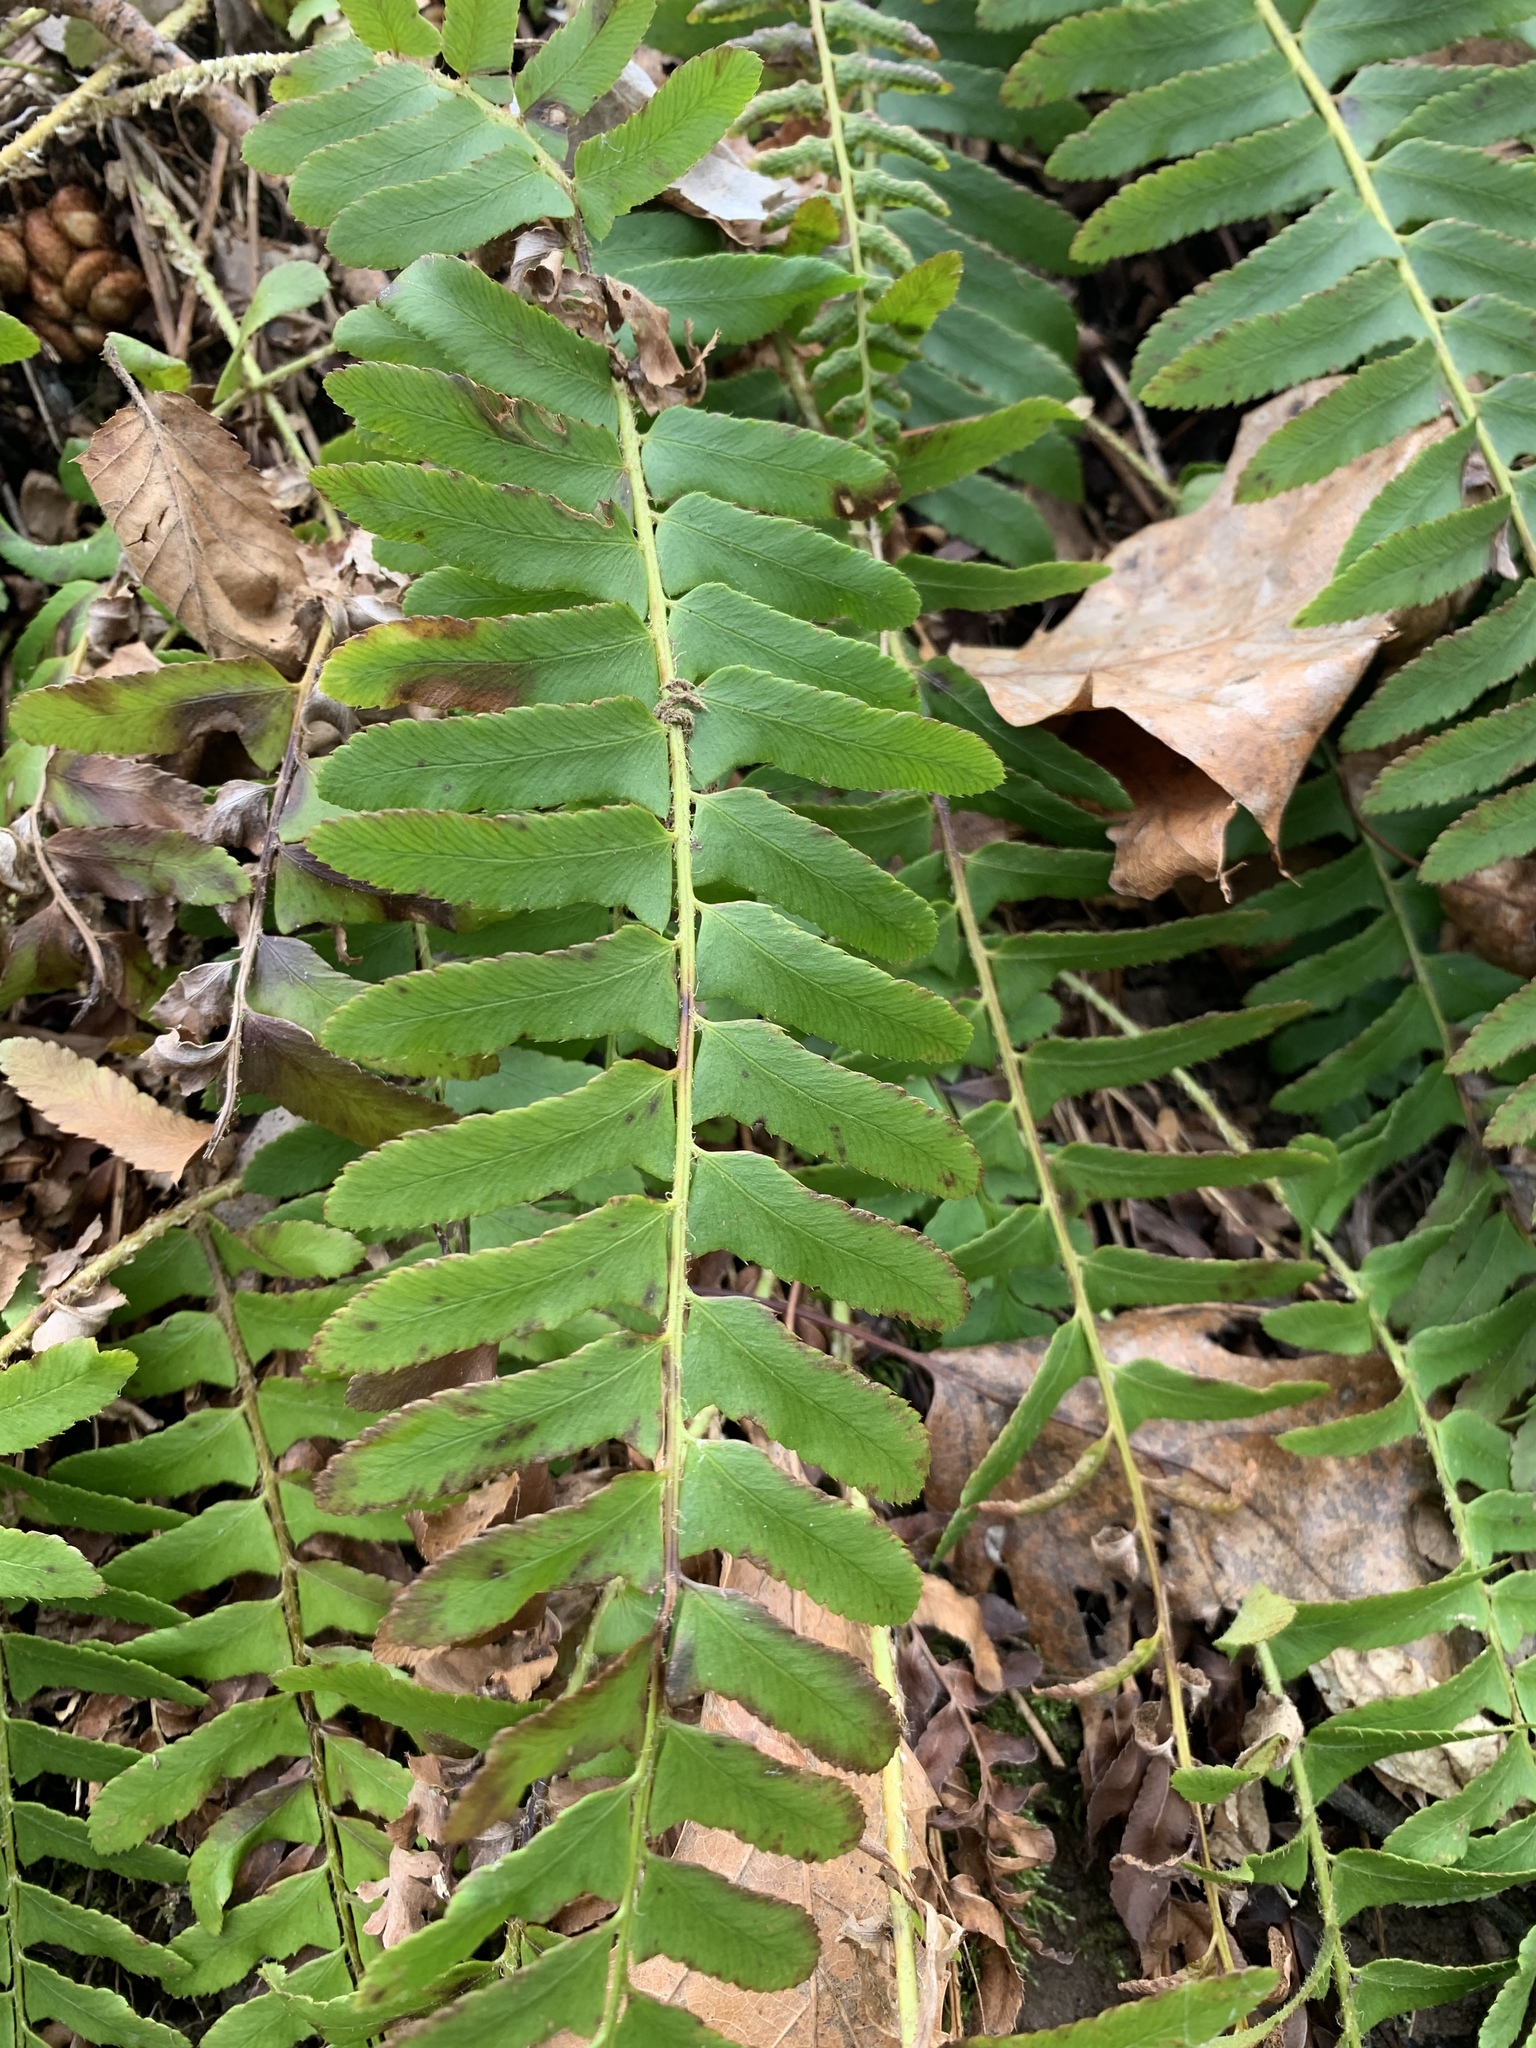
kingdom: Plantae
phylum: Tracheophyta
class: Polypodiopsida
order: Polypodiales
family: Dryopteridaceae
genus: Polystichum
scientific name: Polystichum acrostichoides
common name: Christmas fern
